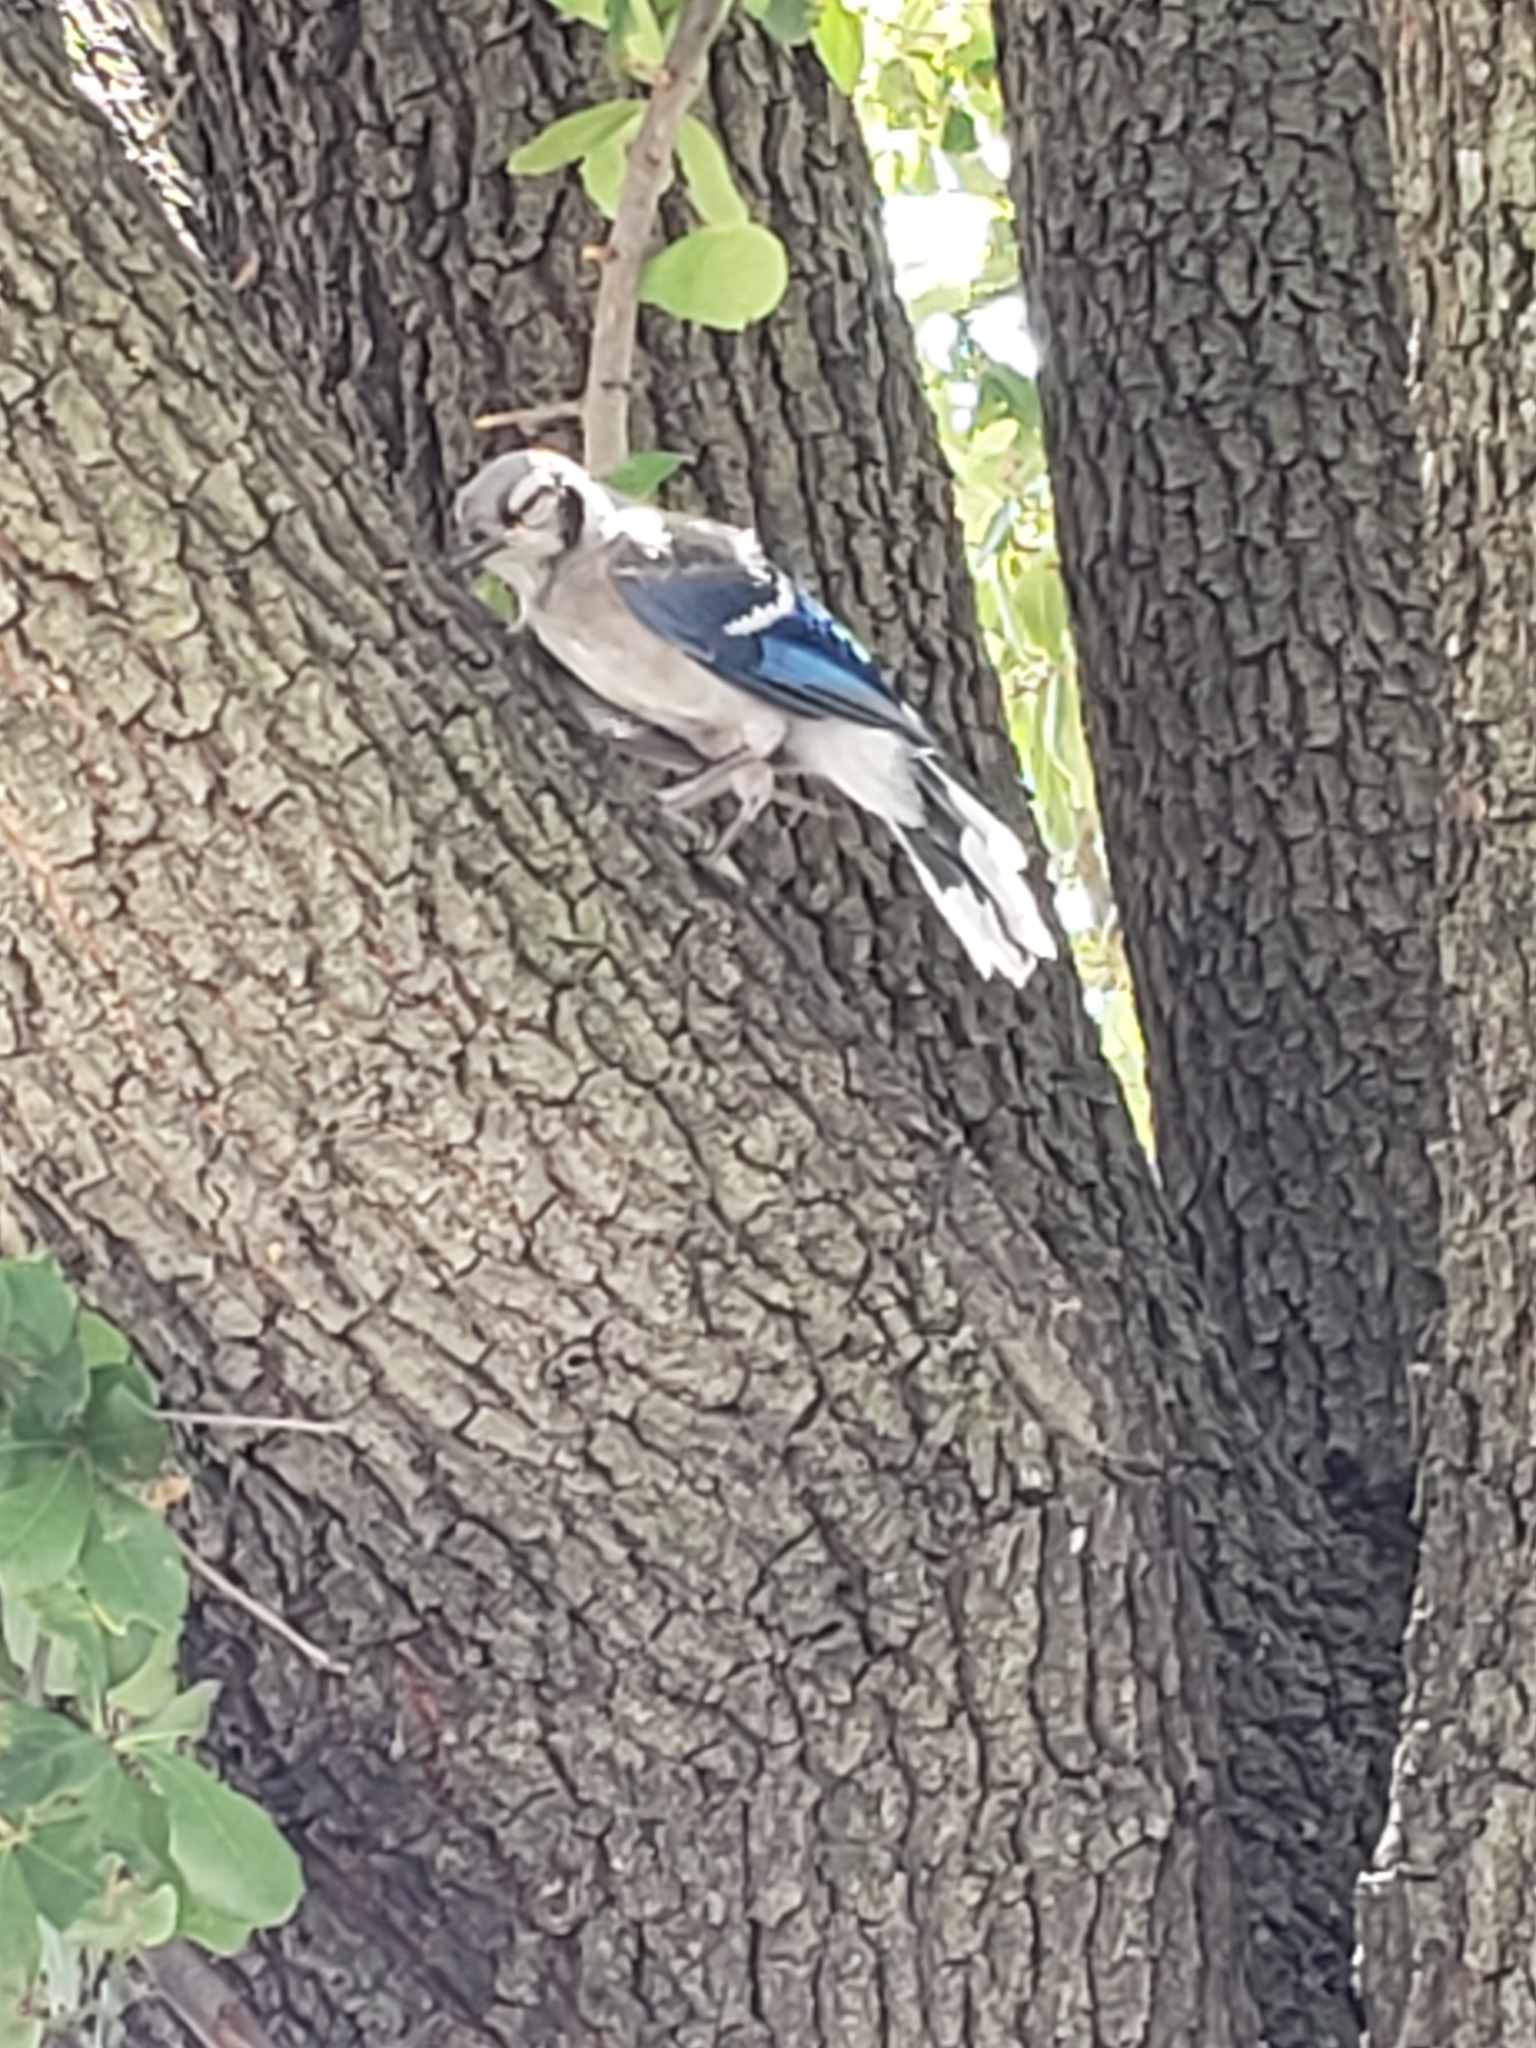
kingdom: Animalia
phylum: Chordata
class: Aves
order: Passeriformes
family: Corvidae
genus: Cyanocitta
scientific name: Cyanocitta cristata
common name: Blue jay
